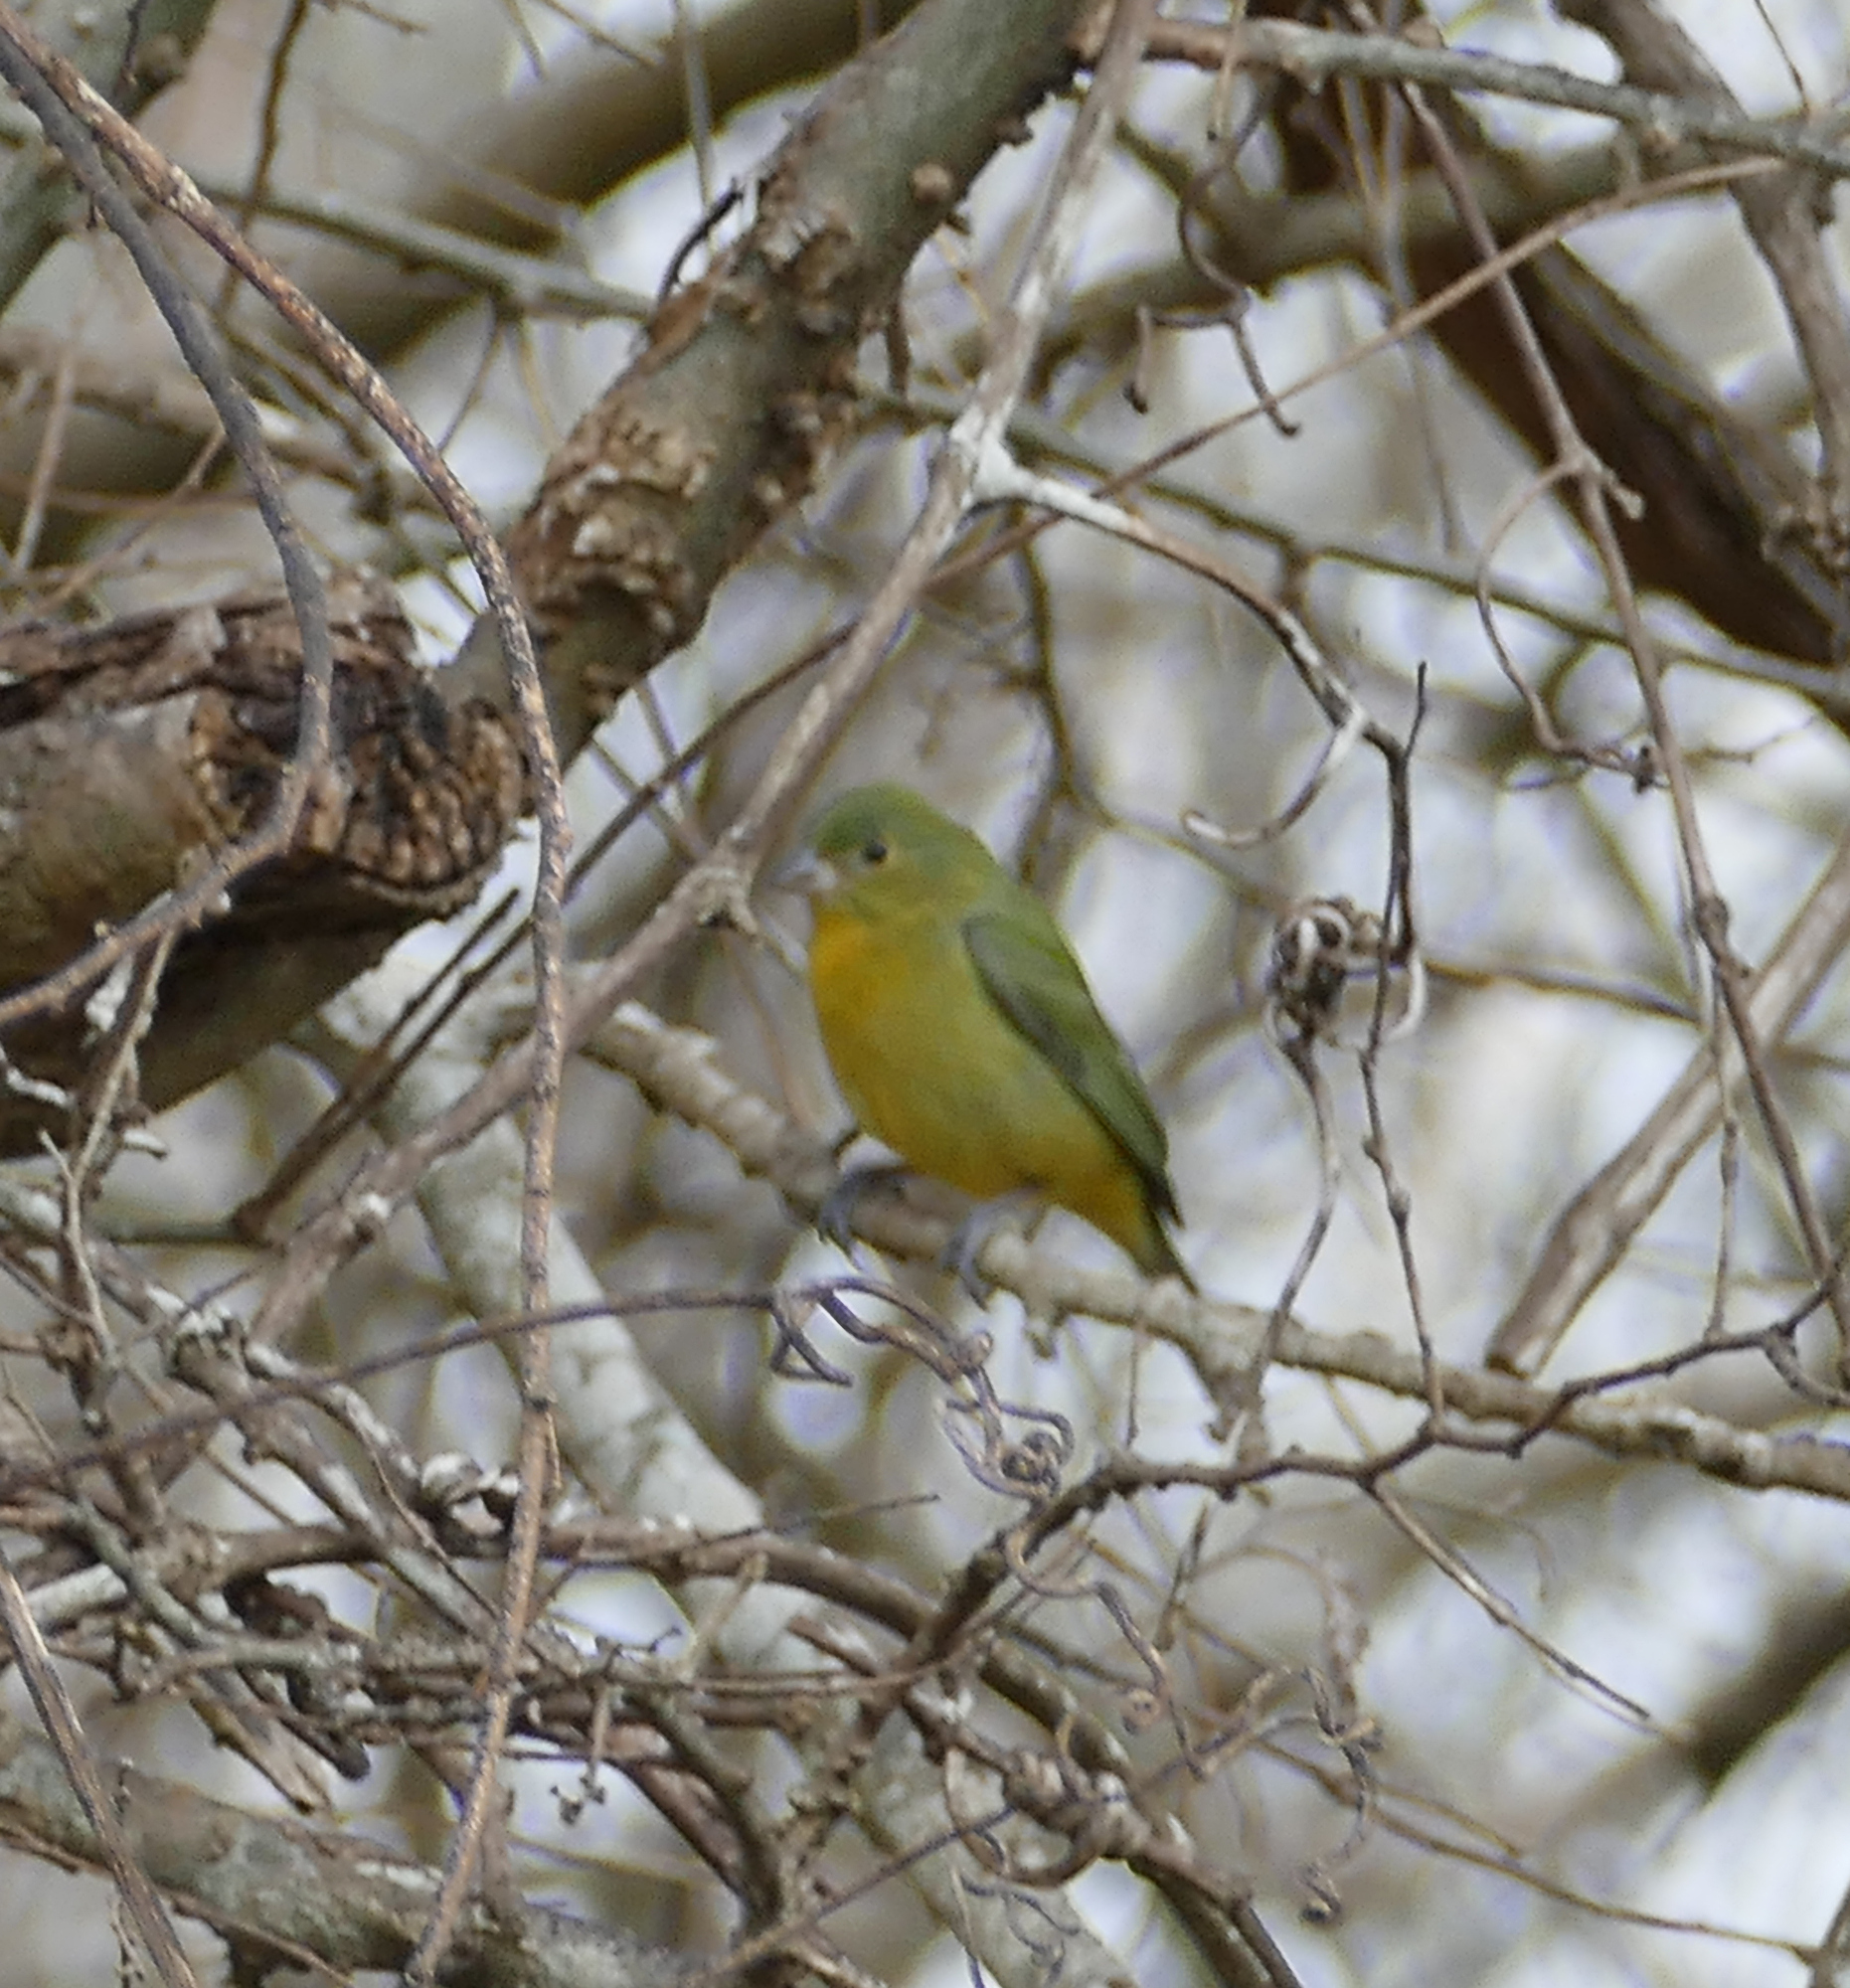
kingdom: Animalia
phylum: Chordata
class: Aves
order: Passeriformes
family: Cardinalidae
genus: Passerina
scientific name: Passerina ciris
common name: Painted bunting
